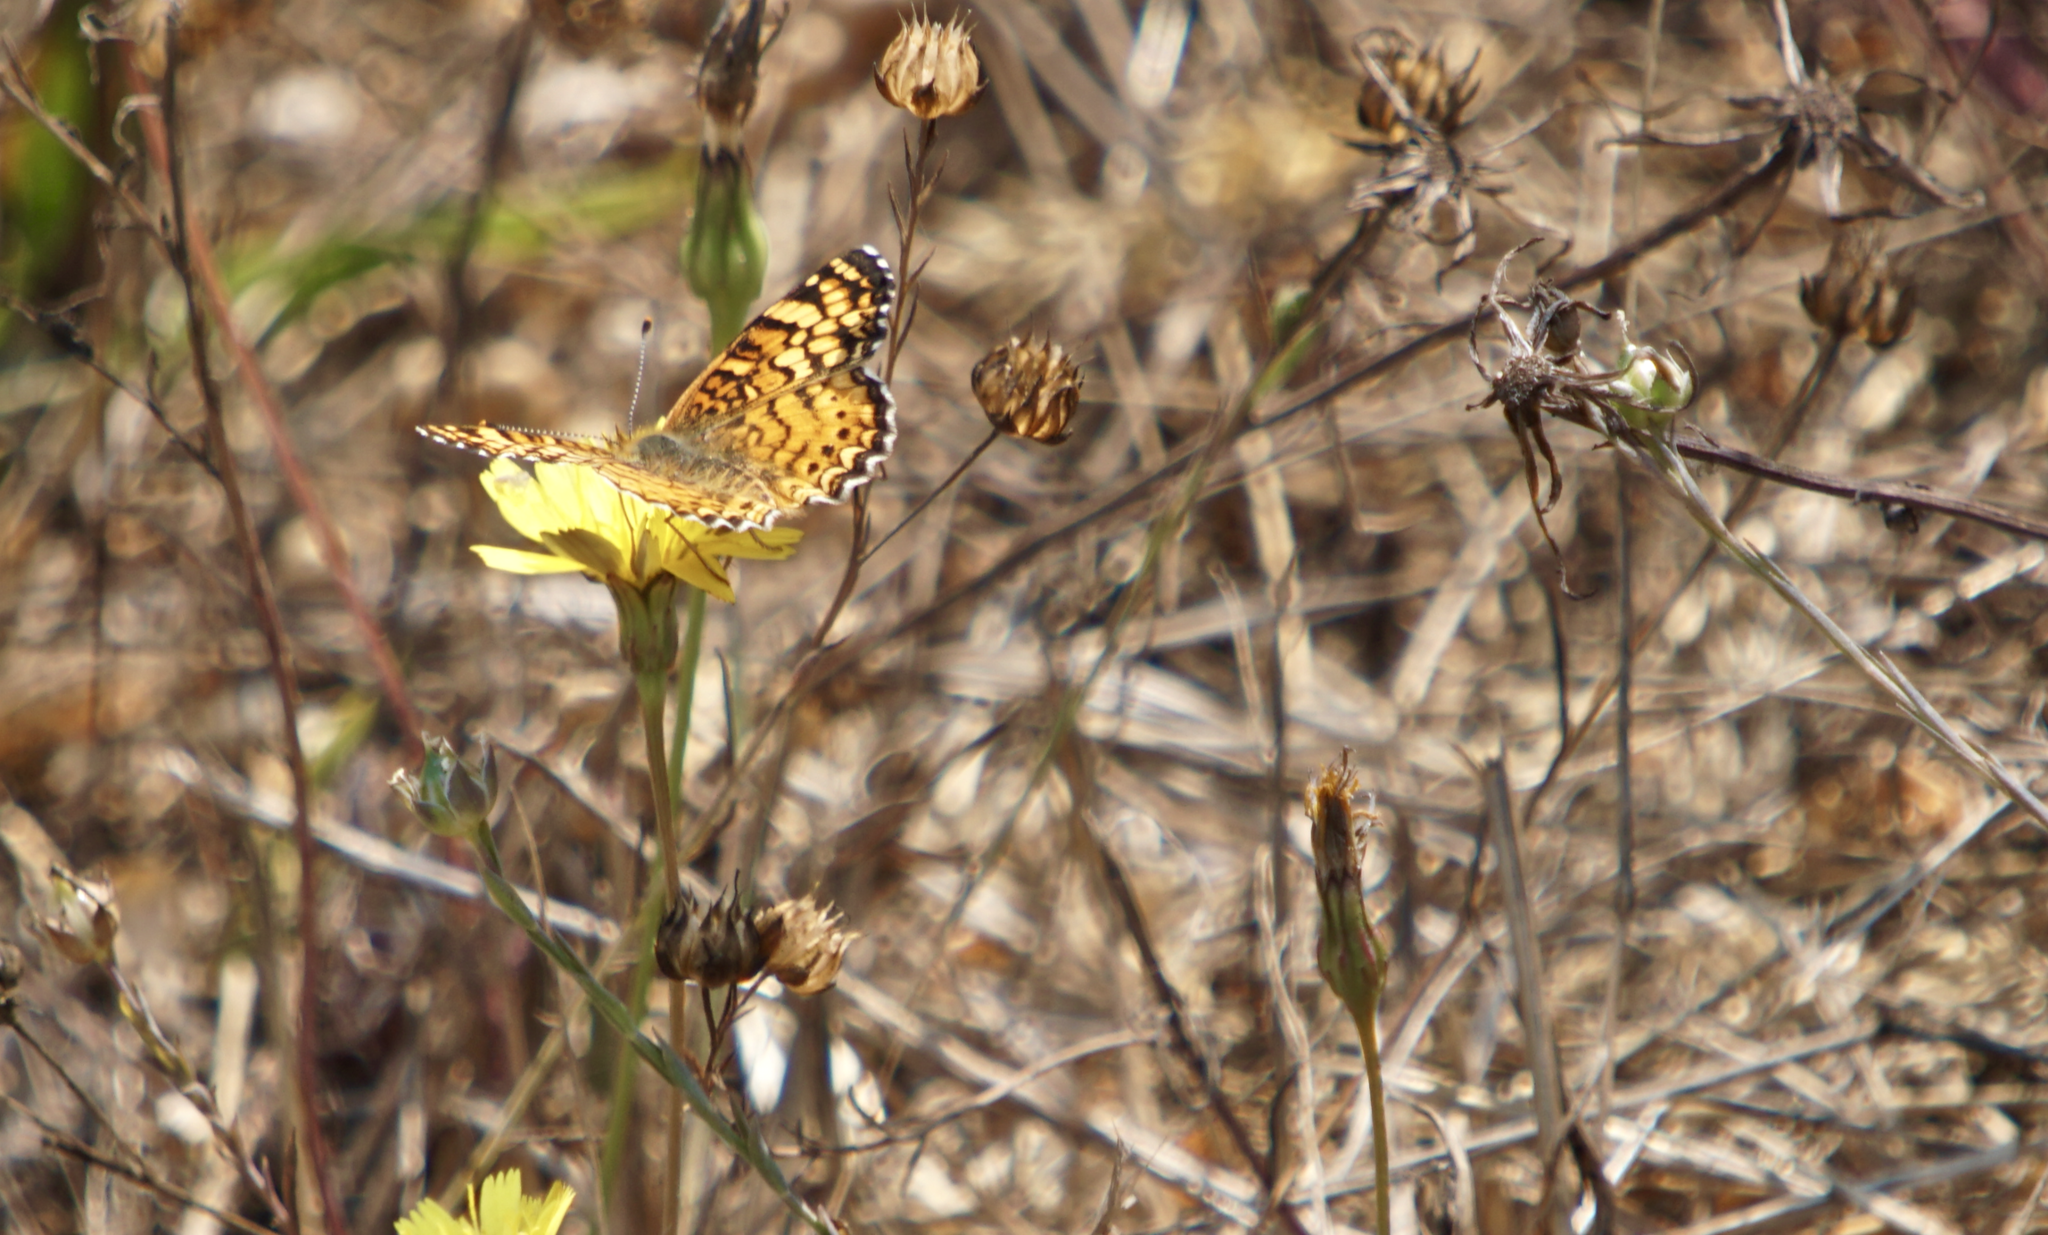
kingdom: Animalia
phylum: Arthropoda
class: Insecta
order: Lepidoptera
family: Nymphalidae
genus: Eresia
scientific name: Eresia aveyrona
